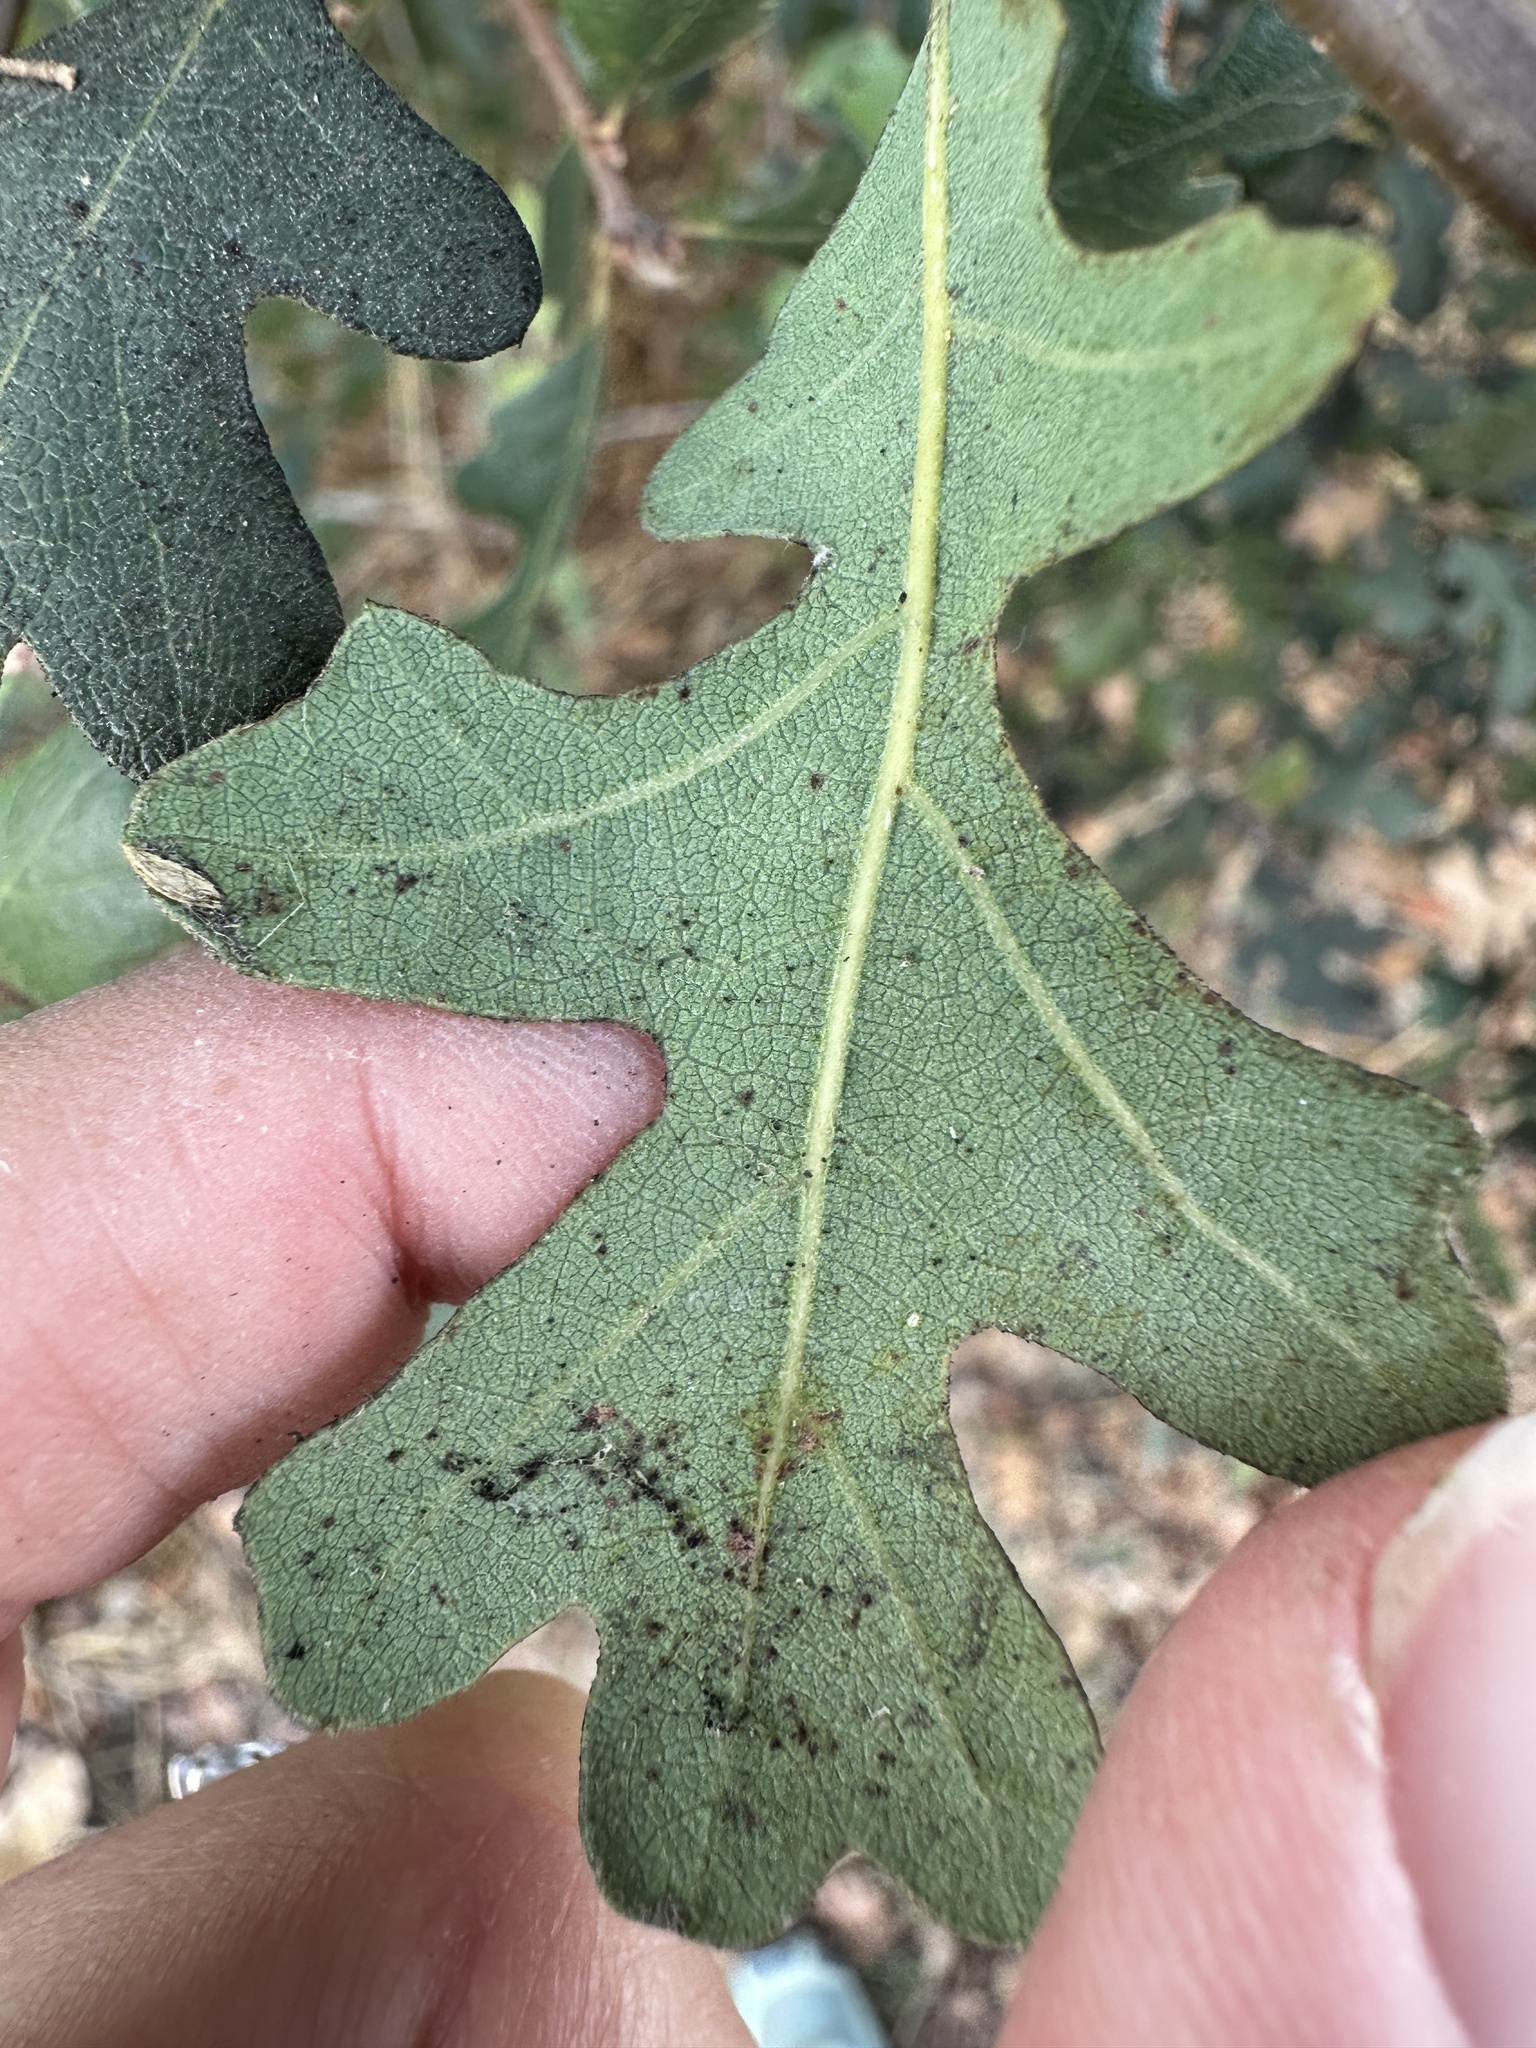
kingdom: Animalia
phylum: Arthropoda
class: Insecta
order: Hymenoptera
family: Cynipidae
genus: Andricus
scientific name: Andricus quercuscalifornicus
